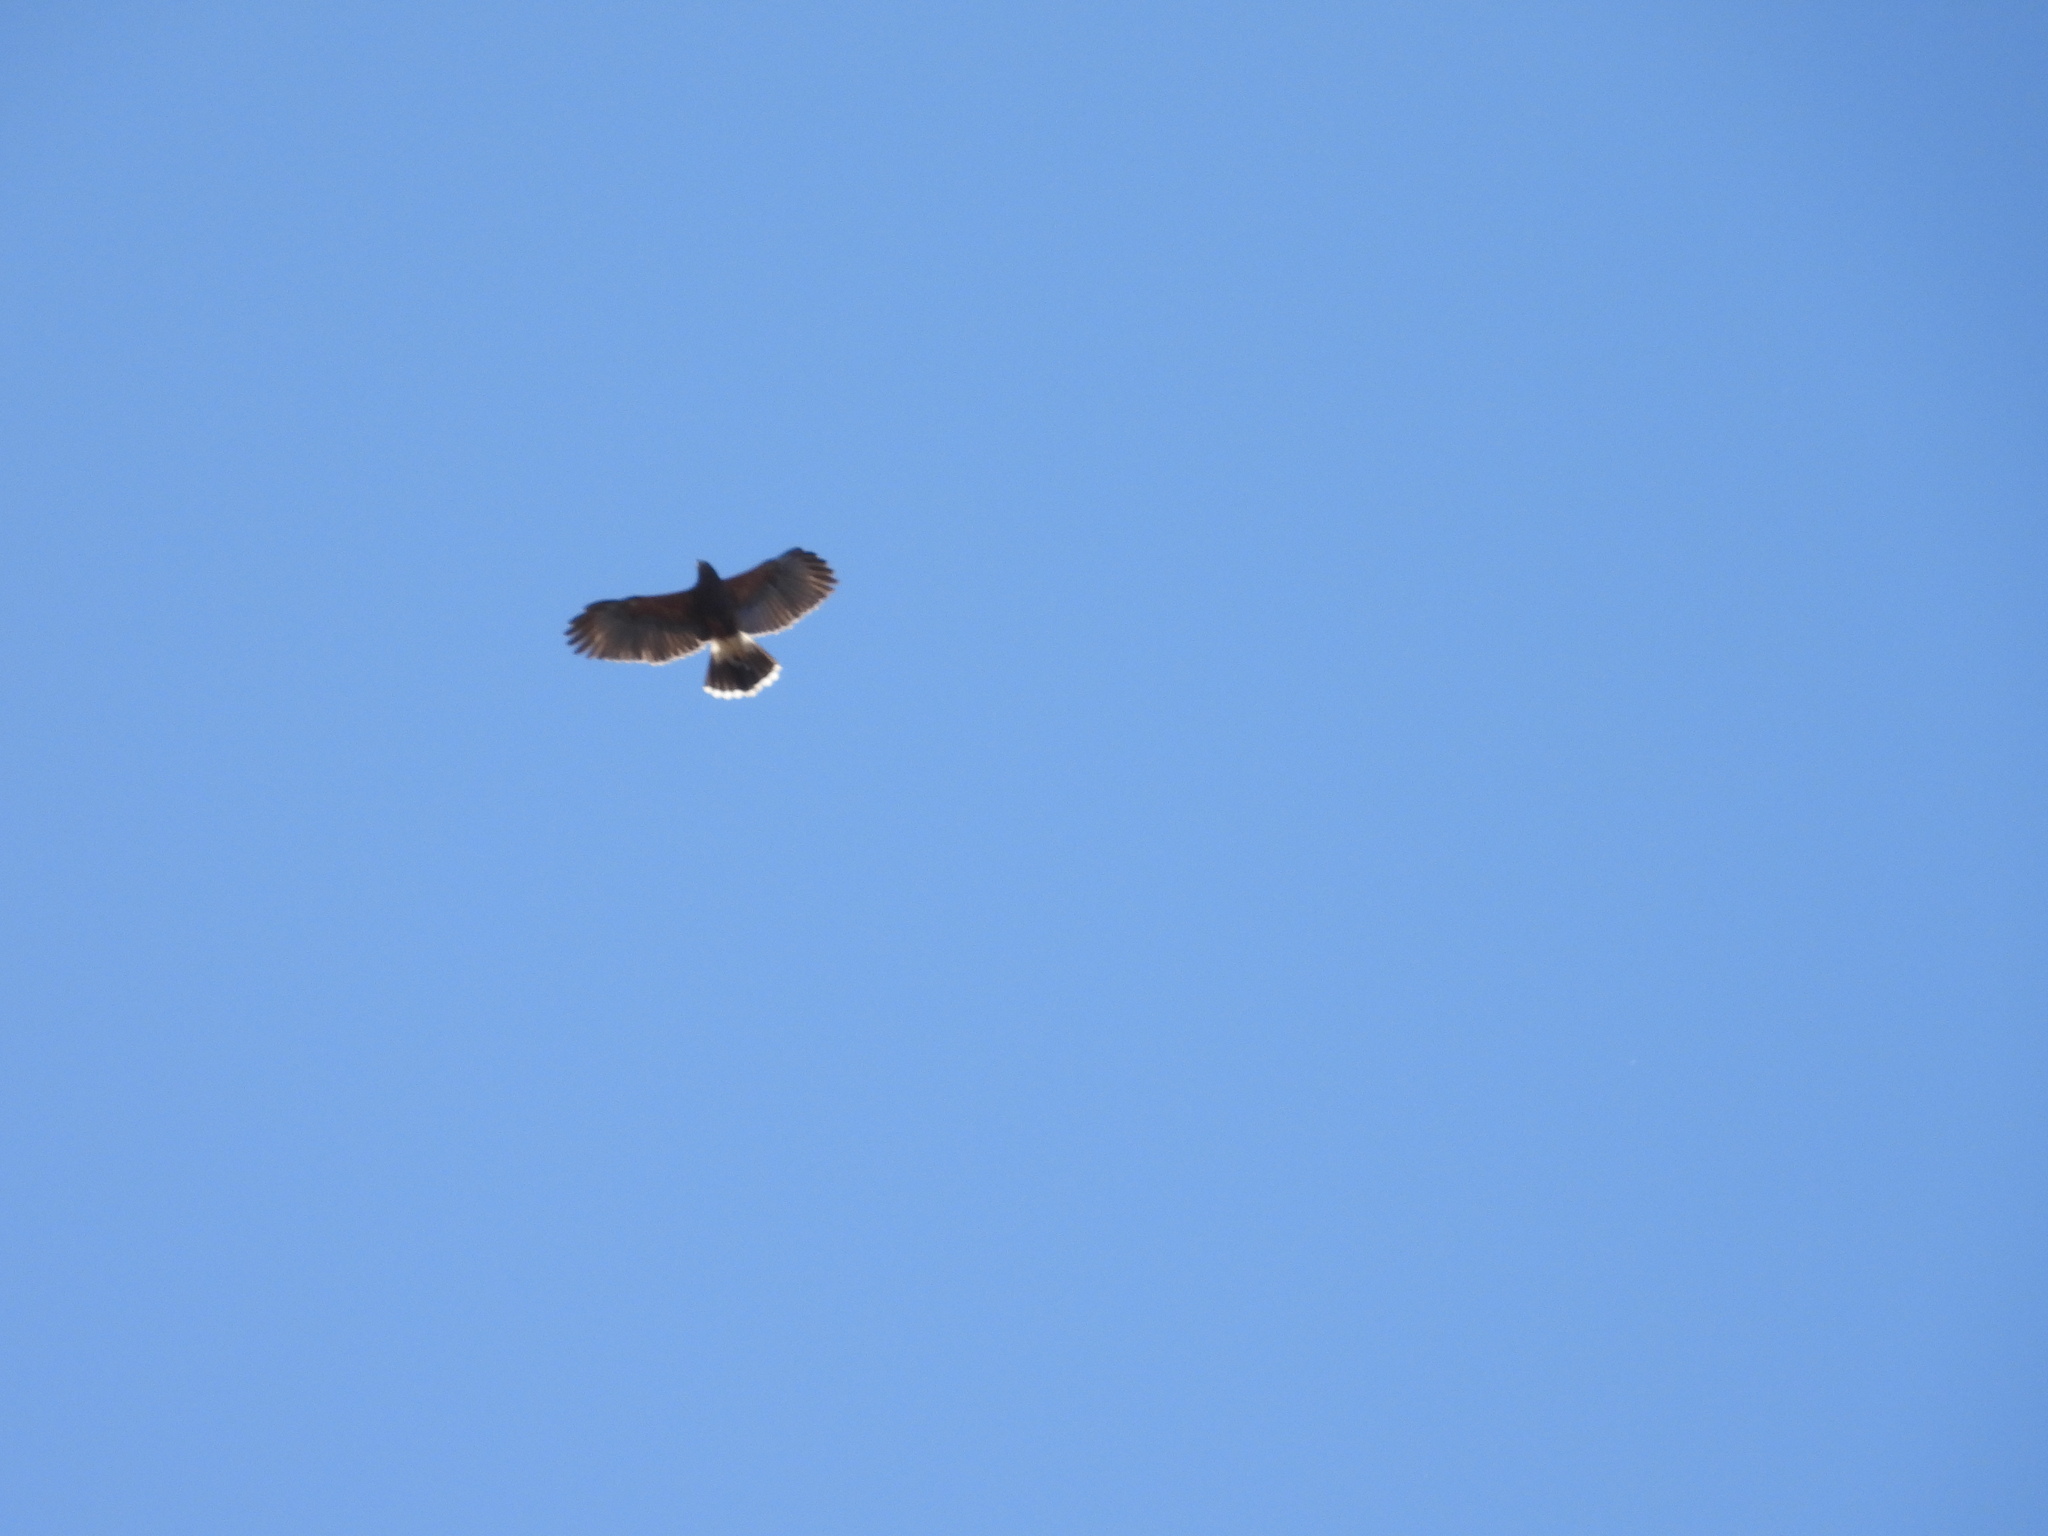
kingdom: Animalia
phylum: Chordata
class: Aves
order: Accipitriformes
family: Accipitridae
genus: Parabuteo
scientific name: Parabuteo unicinctus
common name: Harris's hawk
